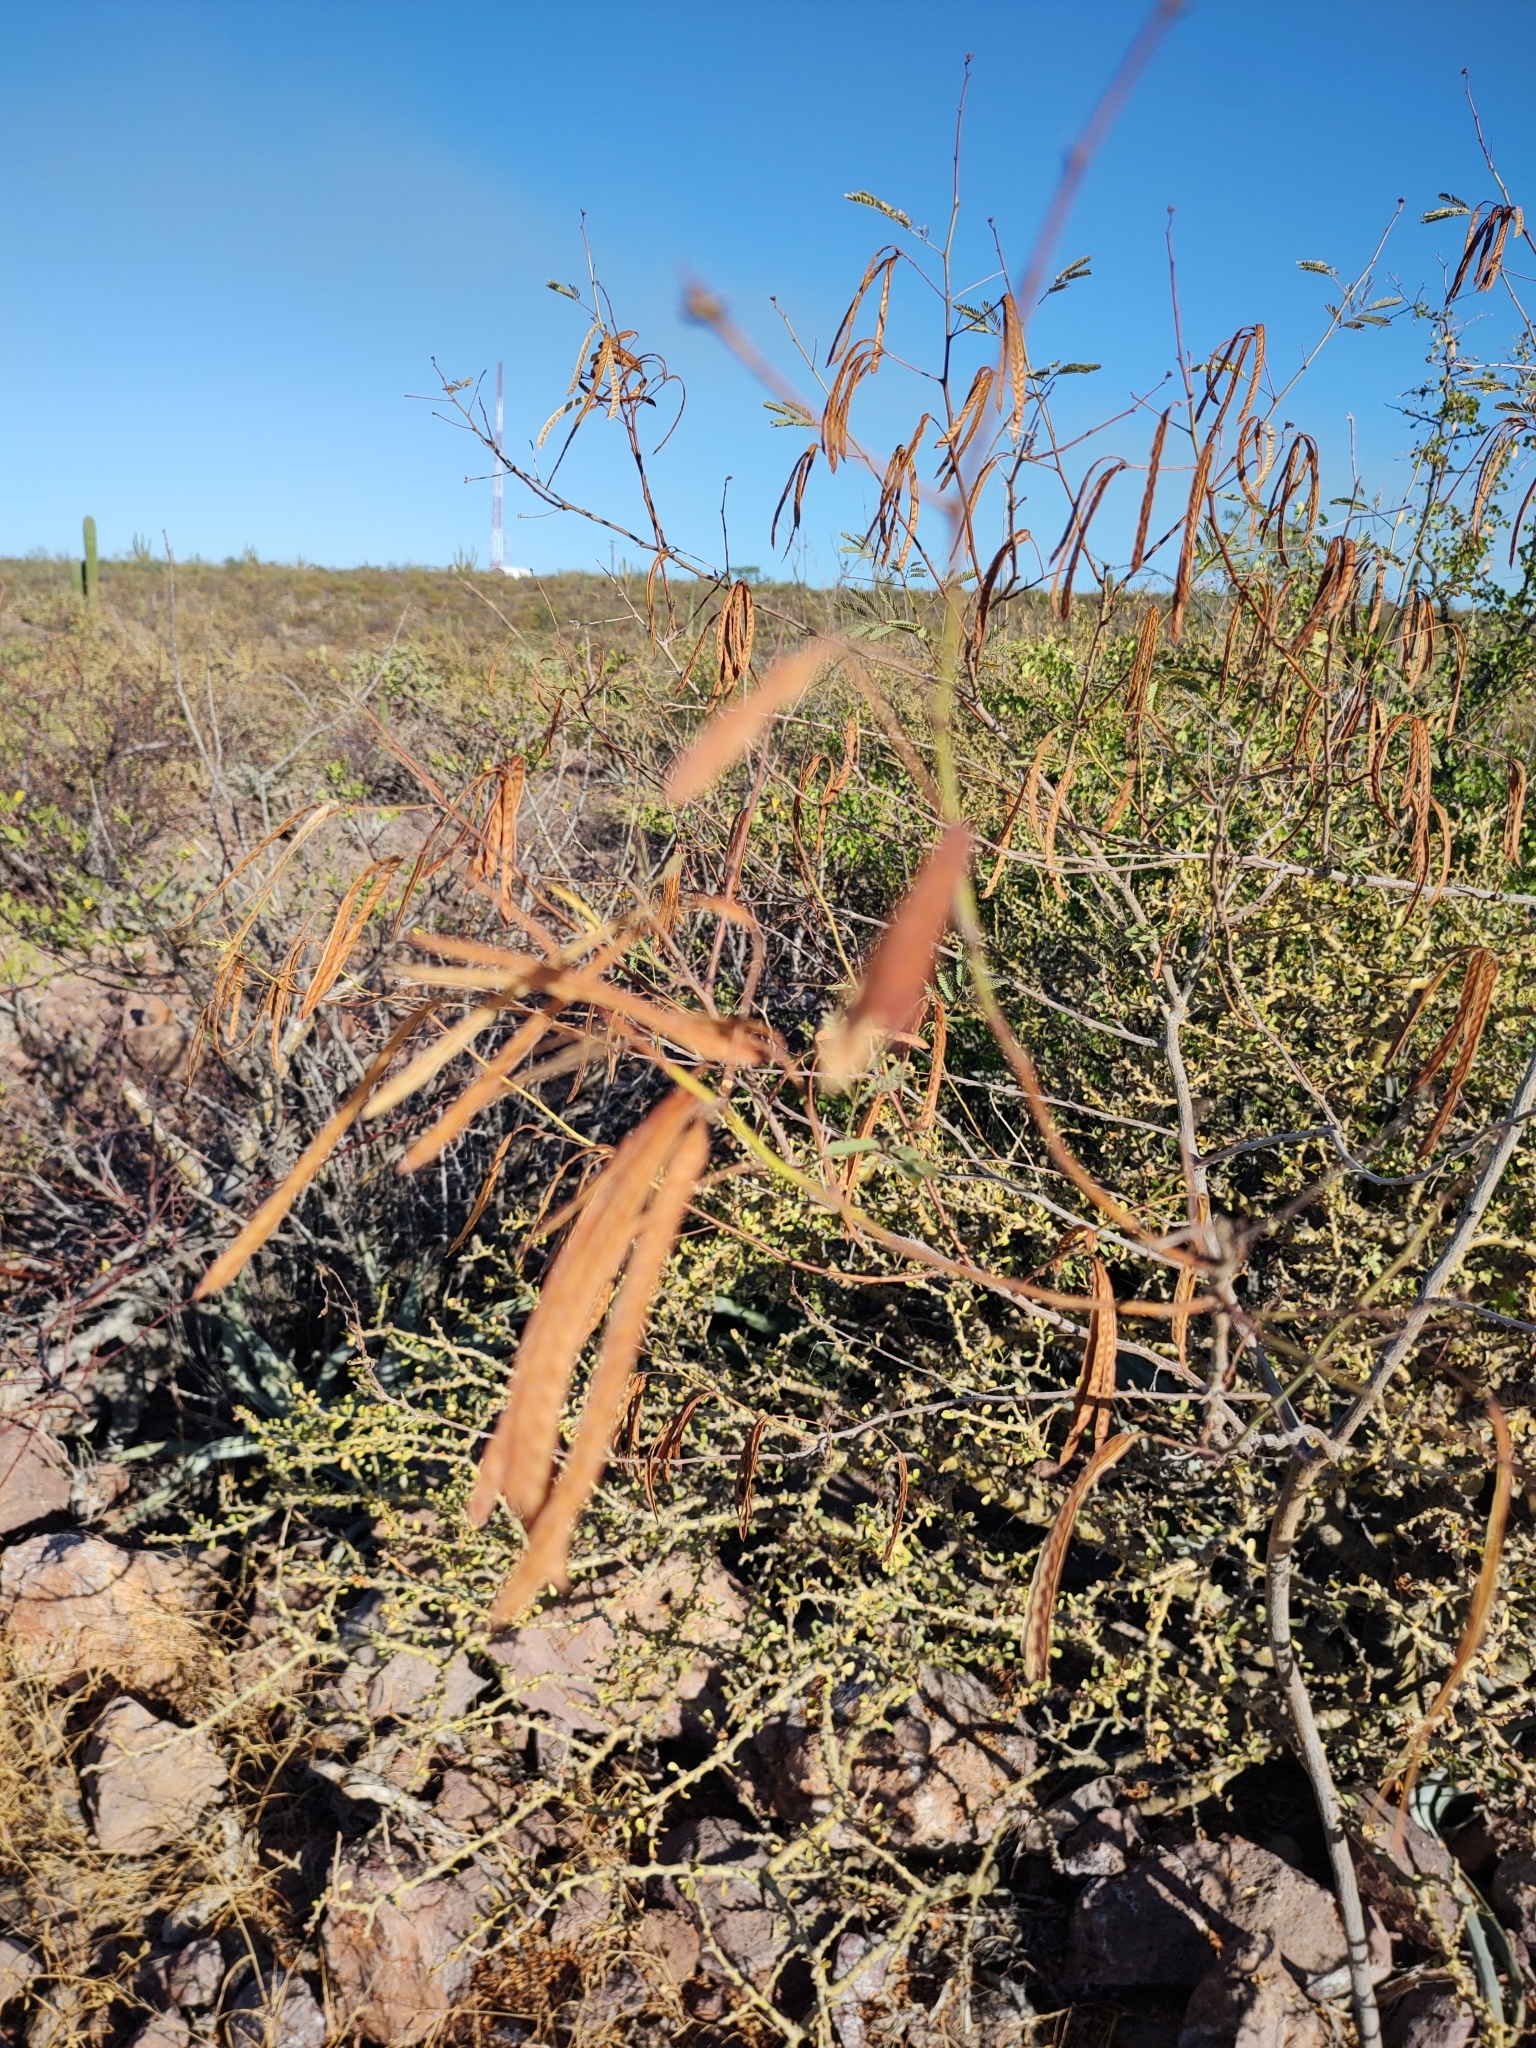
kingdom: Plantae
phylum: Tracheophyta
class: Magnoliopsida
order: Fabales
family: Fabaceae
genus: Desmanthus
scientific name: Desmanthus fruticosus
